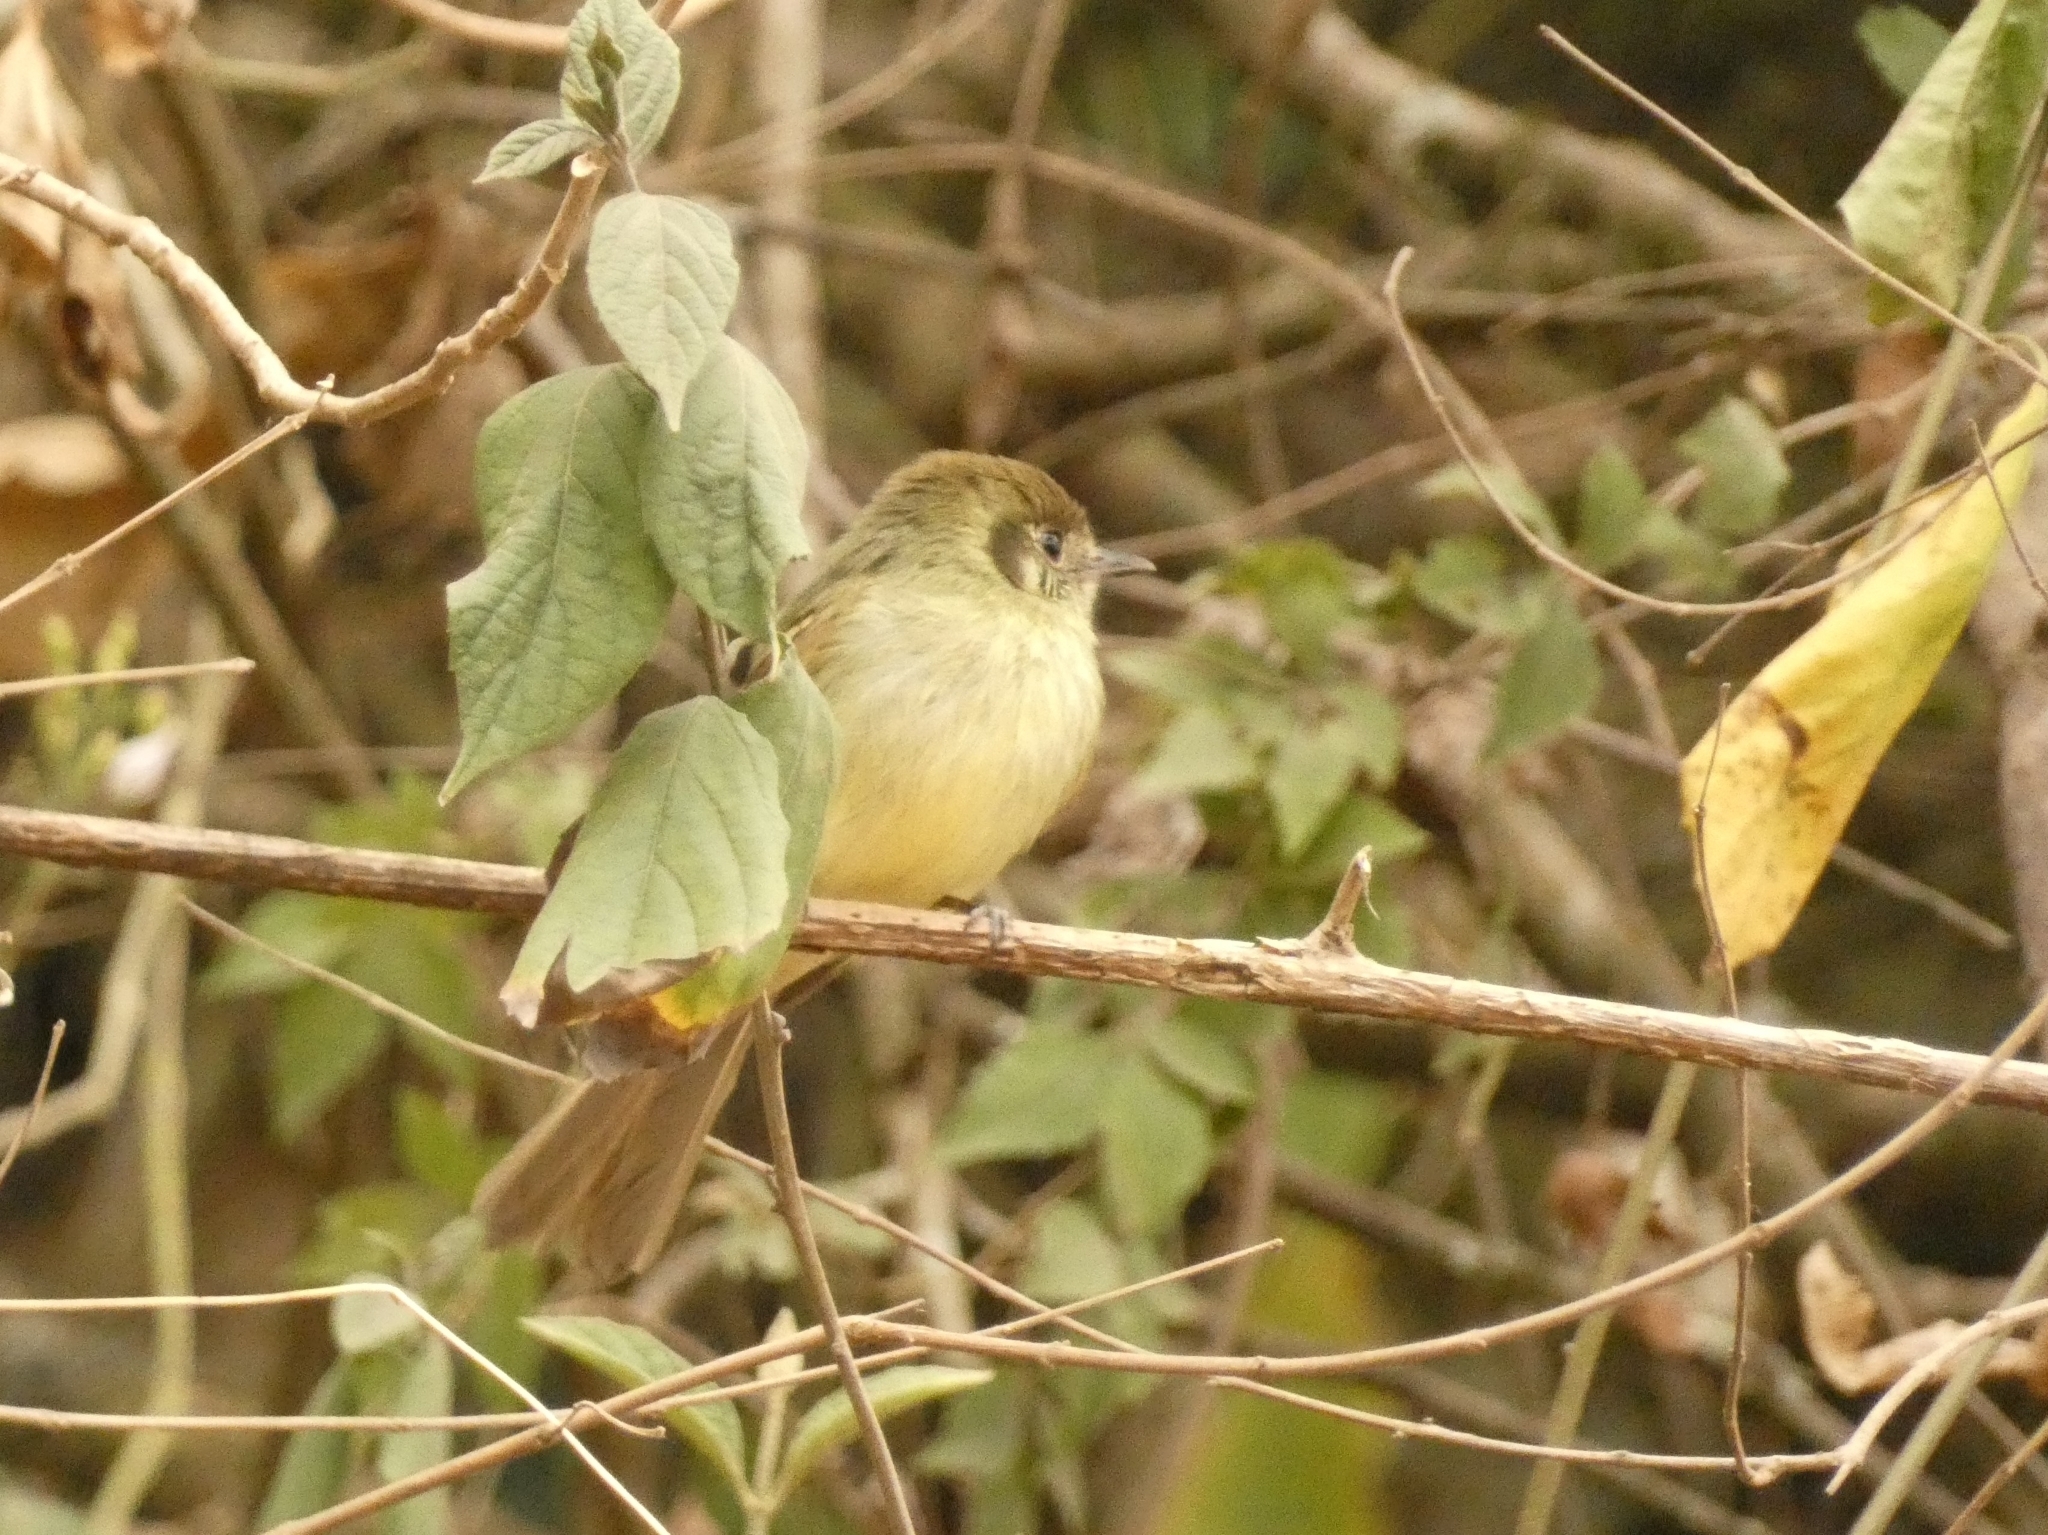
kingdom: Animalia
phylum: Chordata
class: Aves
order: Passeriformes
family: Tyrannidae
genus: Leptopogon
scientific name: Leptopogon amaurocephalus
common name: Sepia-capped flycatcher
